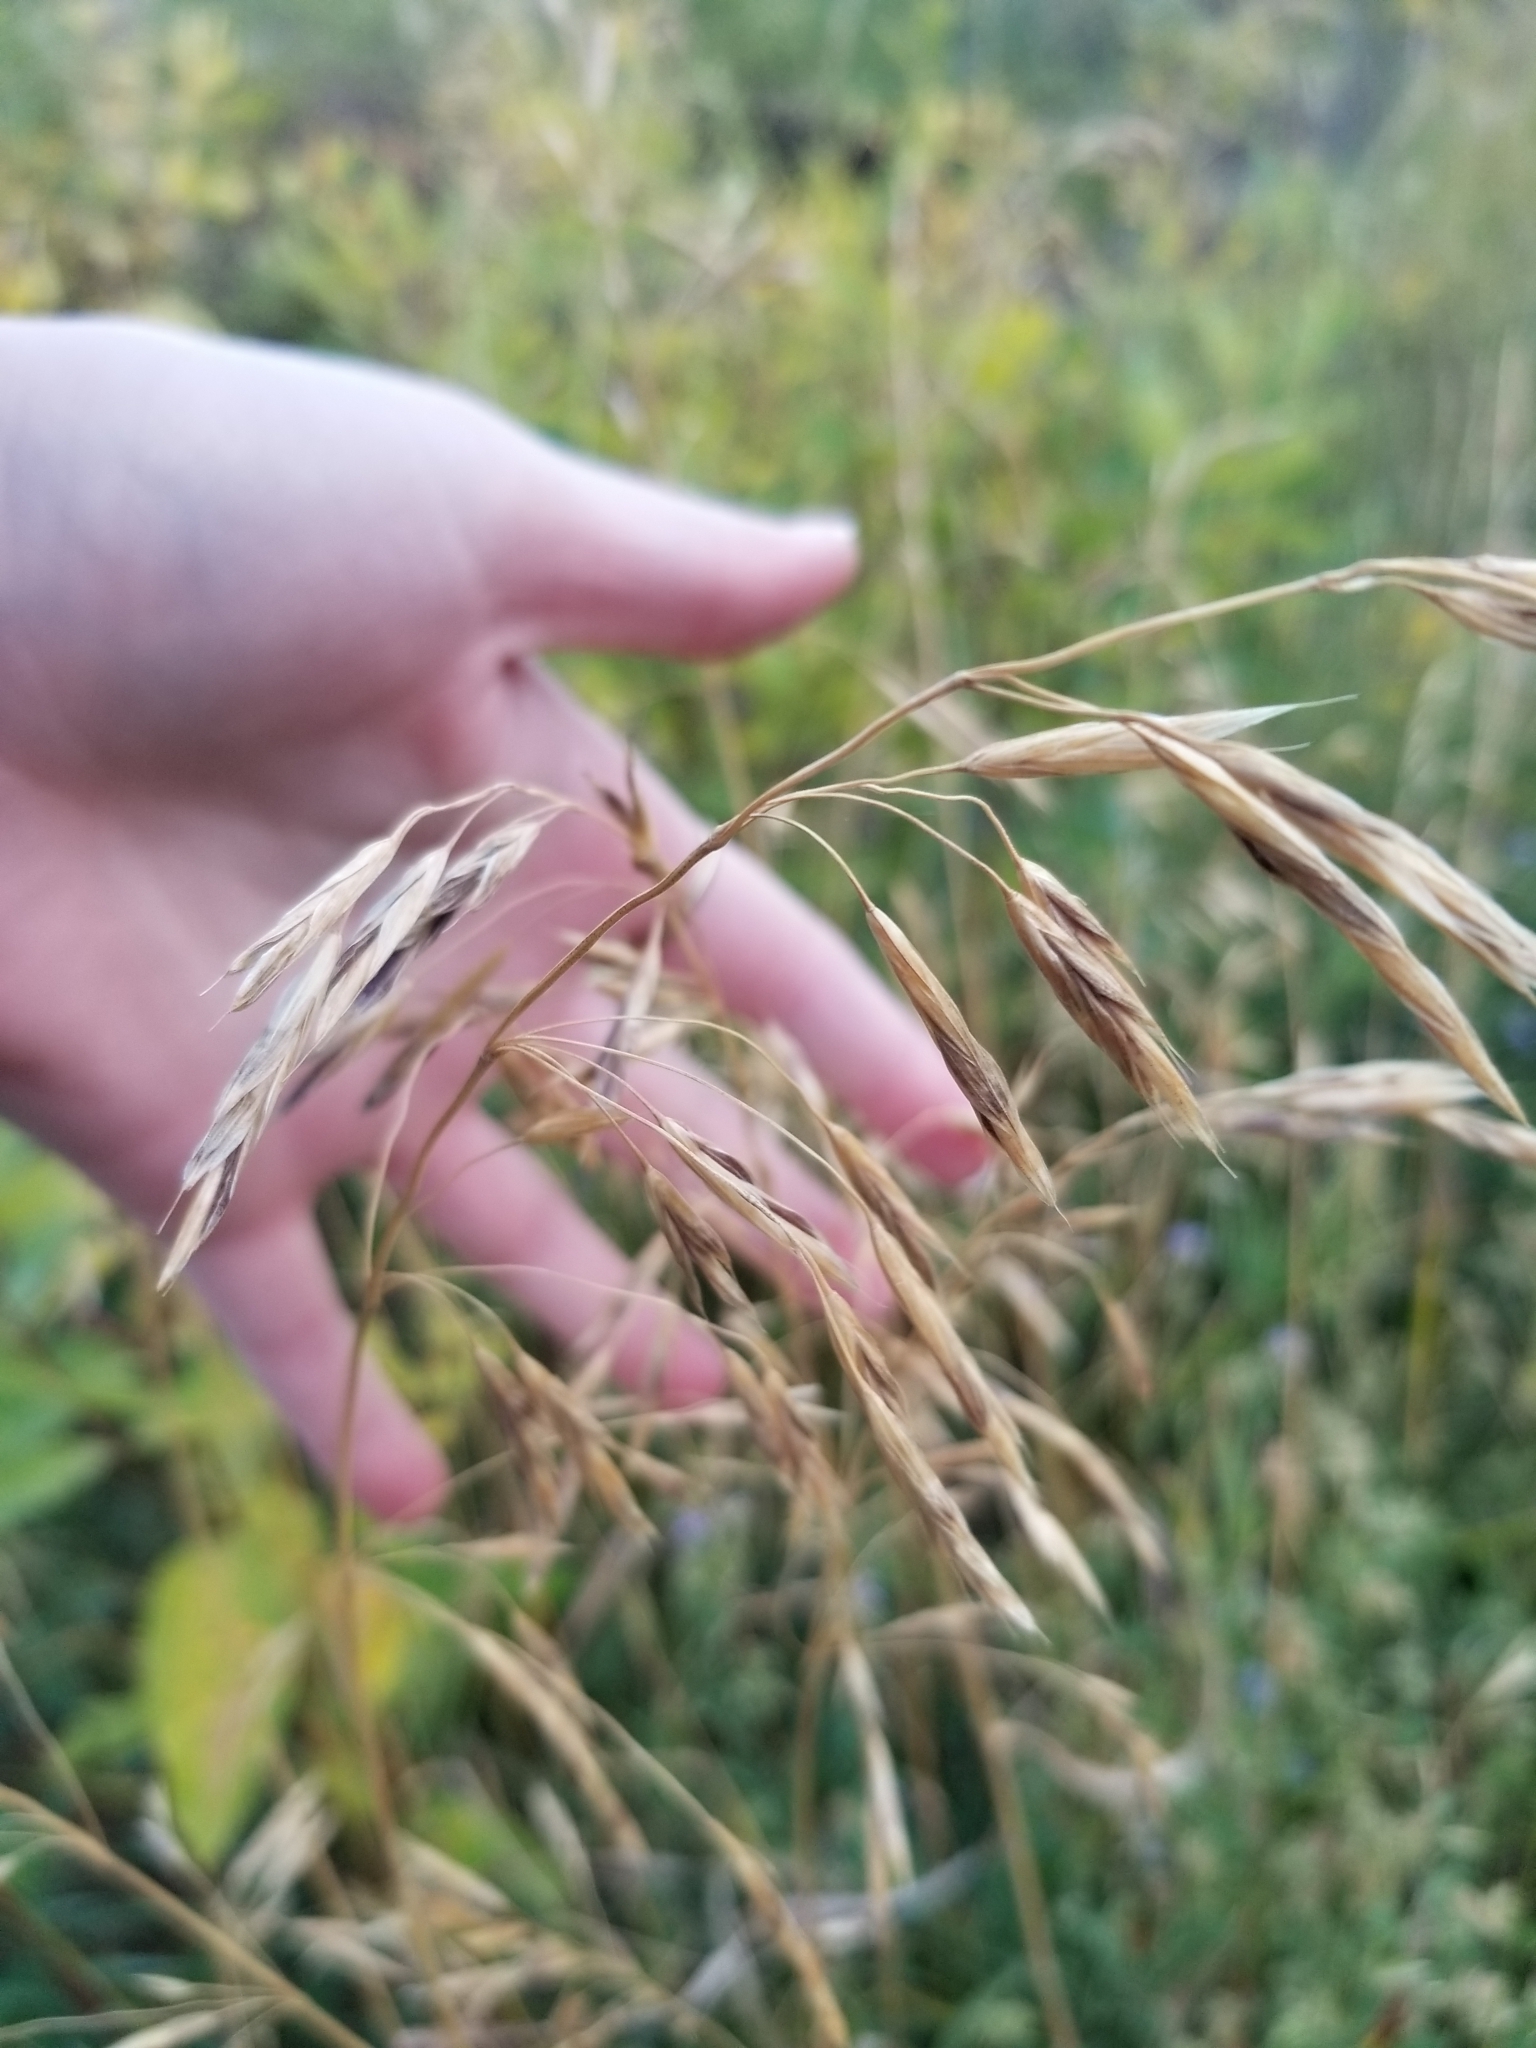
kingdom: Plantae
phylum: Tracheophyta
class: Liliopsida
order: Poales
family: Poaceae
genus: Bromus
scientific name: Bromus inermis
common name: Smooth brome
